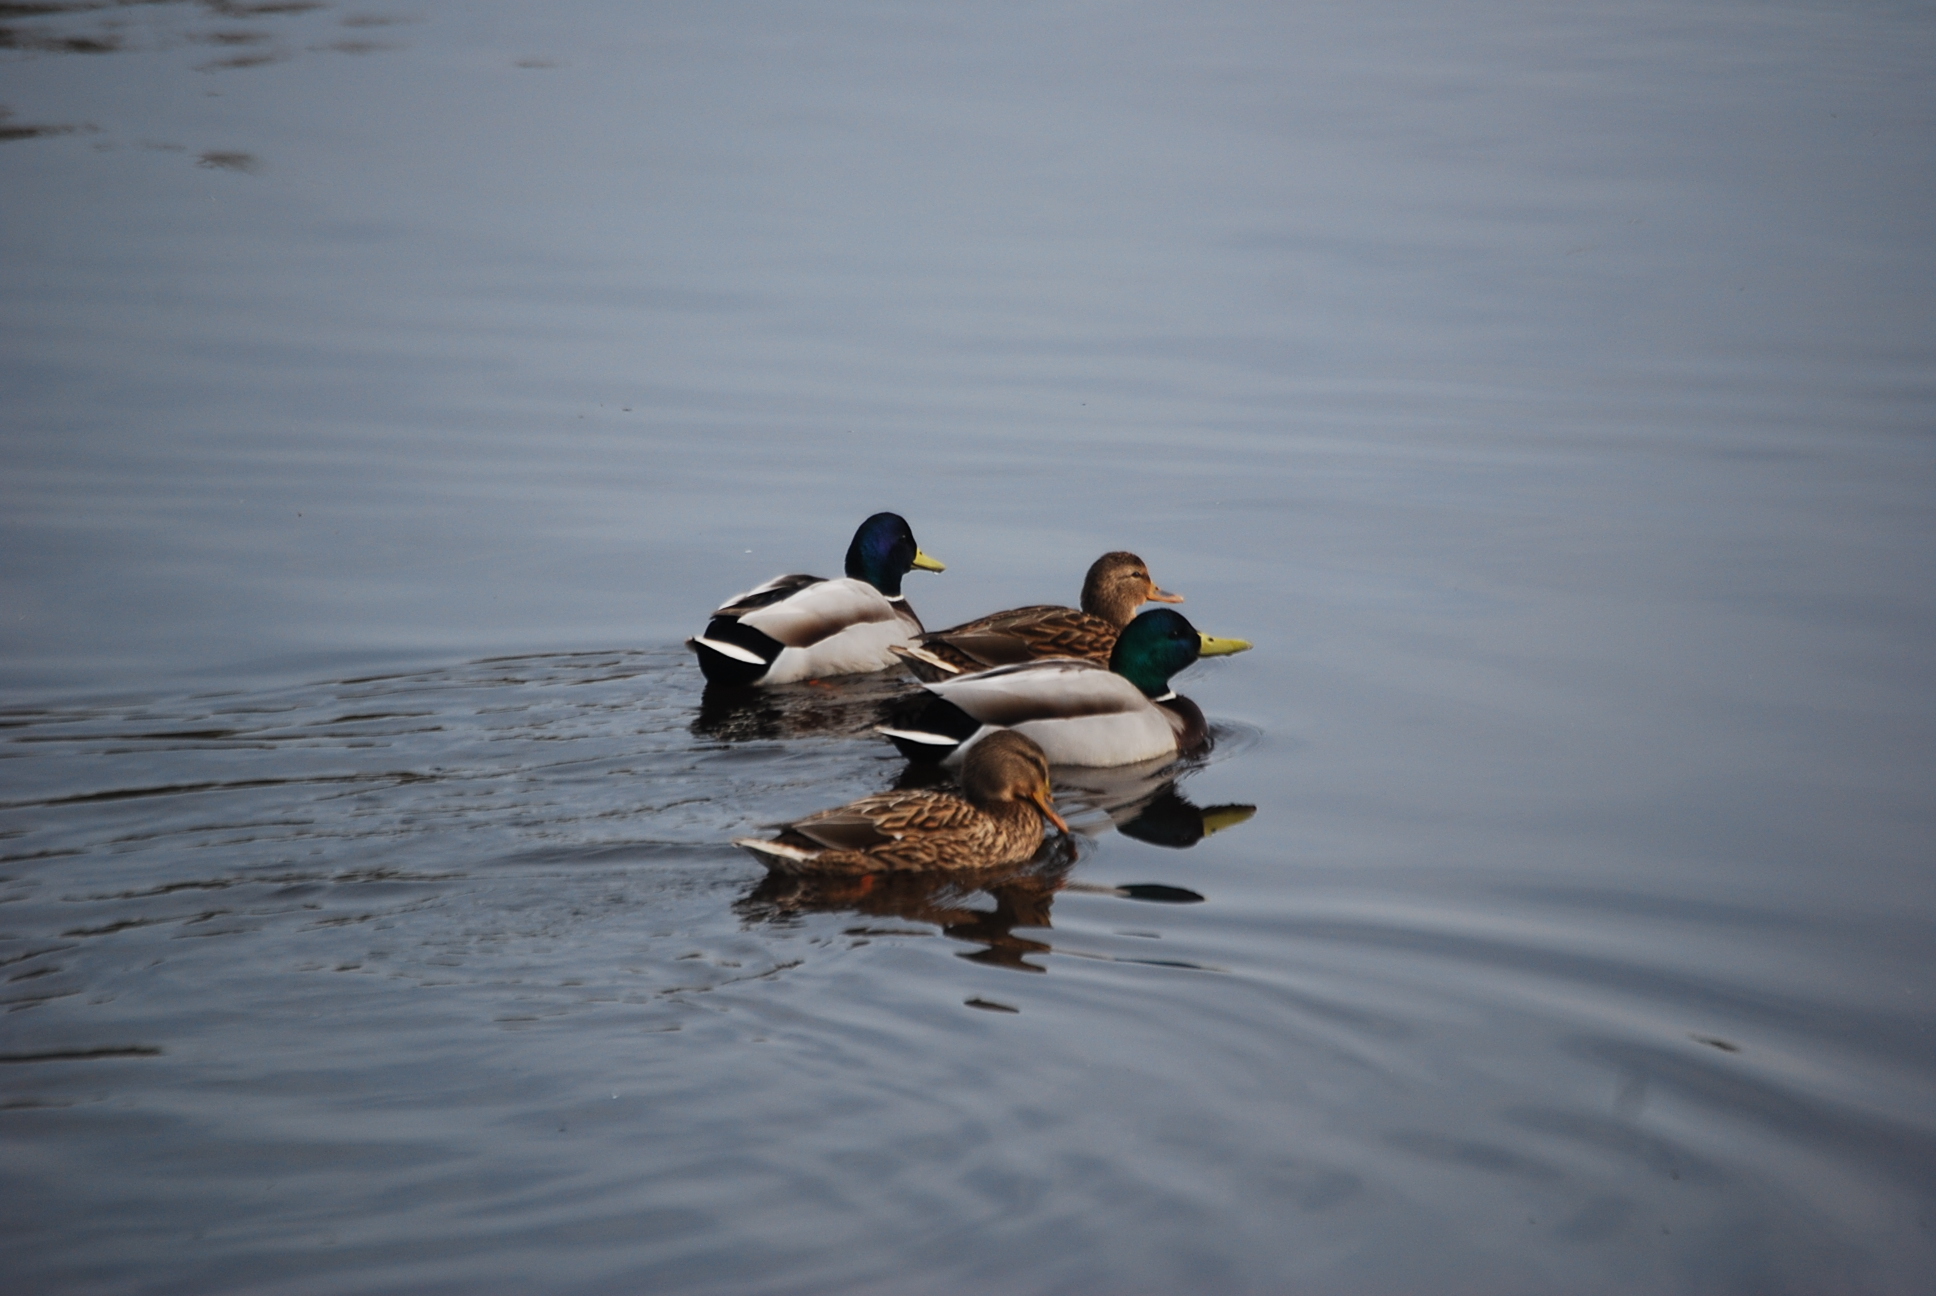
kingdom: Animalia
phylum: Chordata
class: Aves
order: Anseriformes
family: Anatidae
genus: Anas
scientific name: Anas platyrhynchos
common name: Mallard
